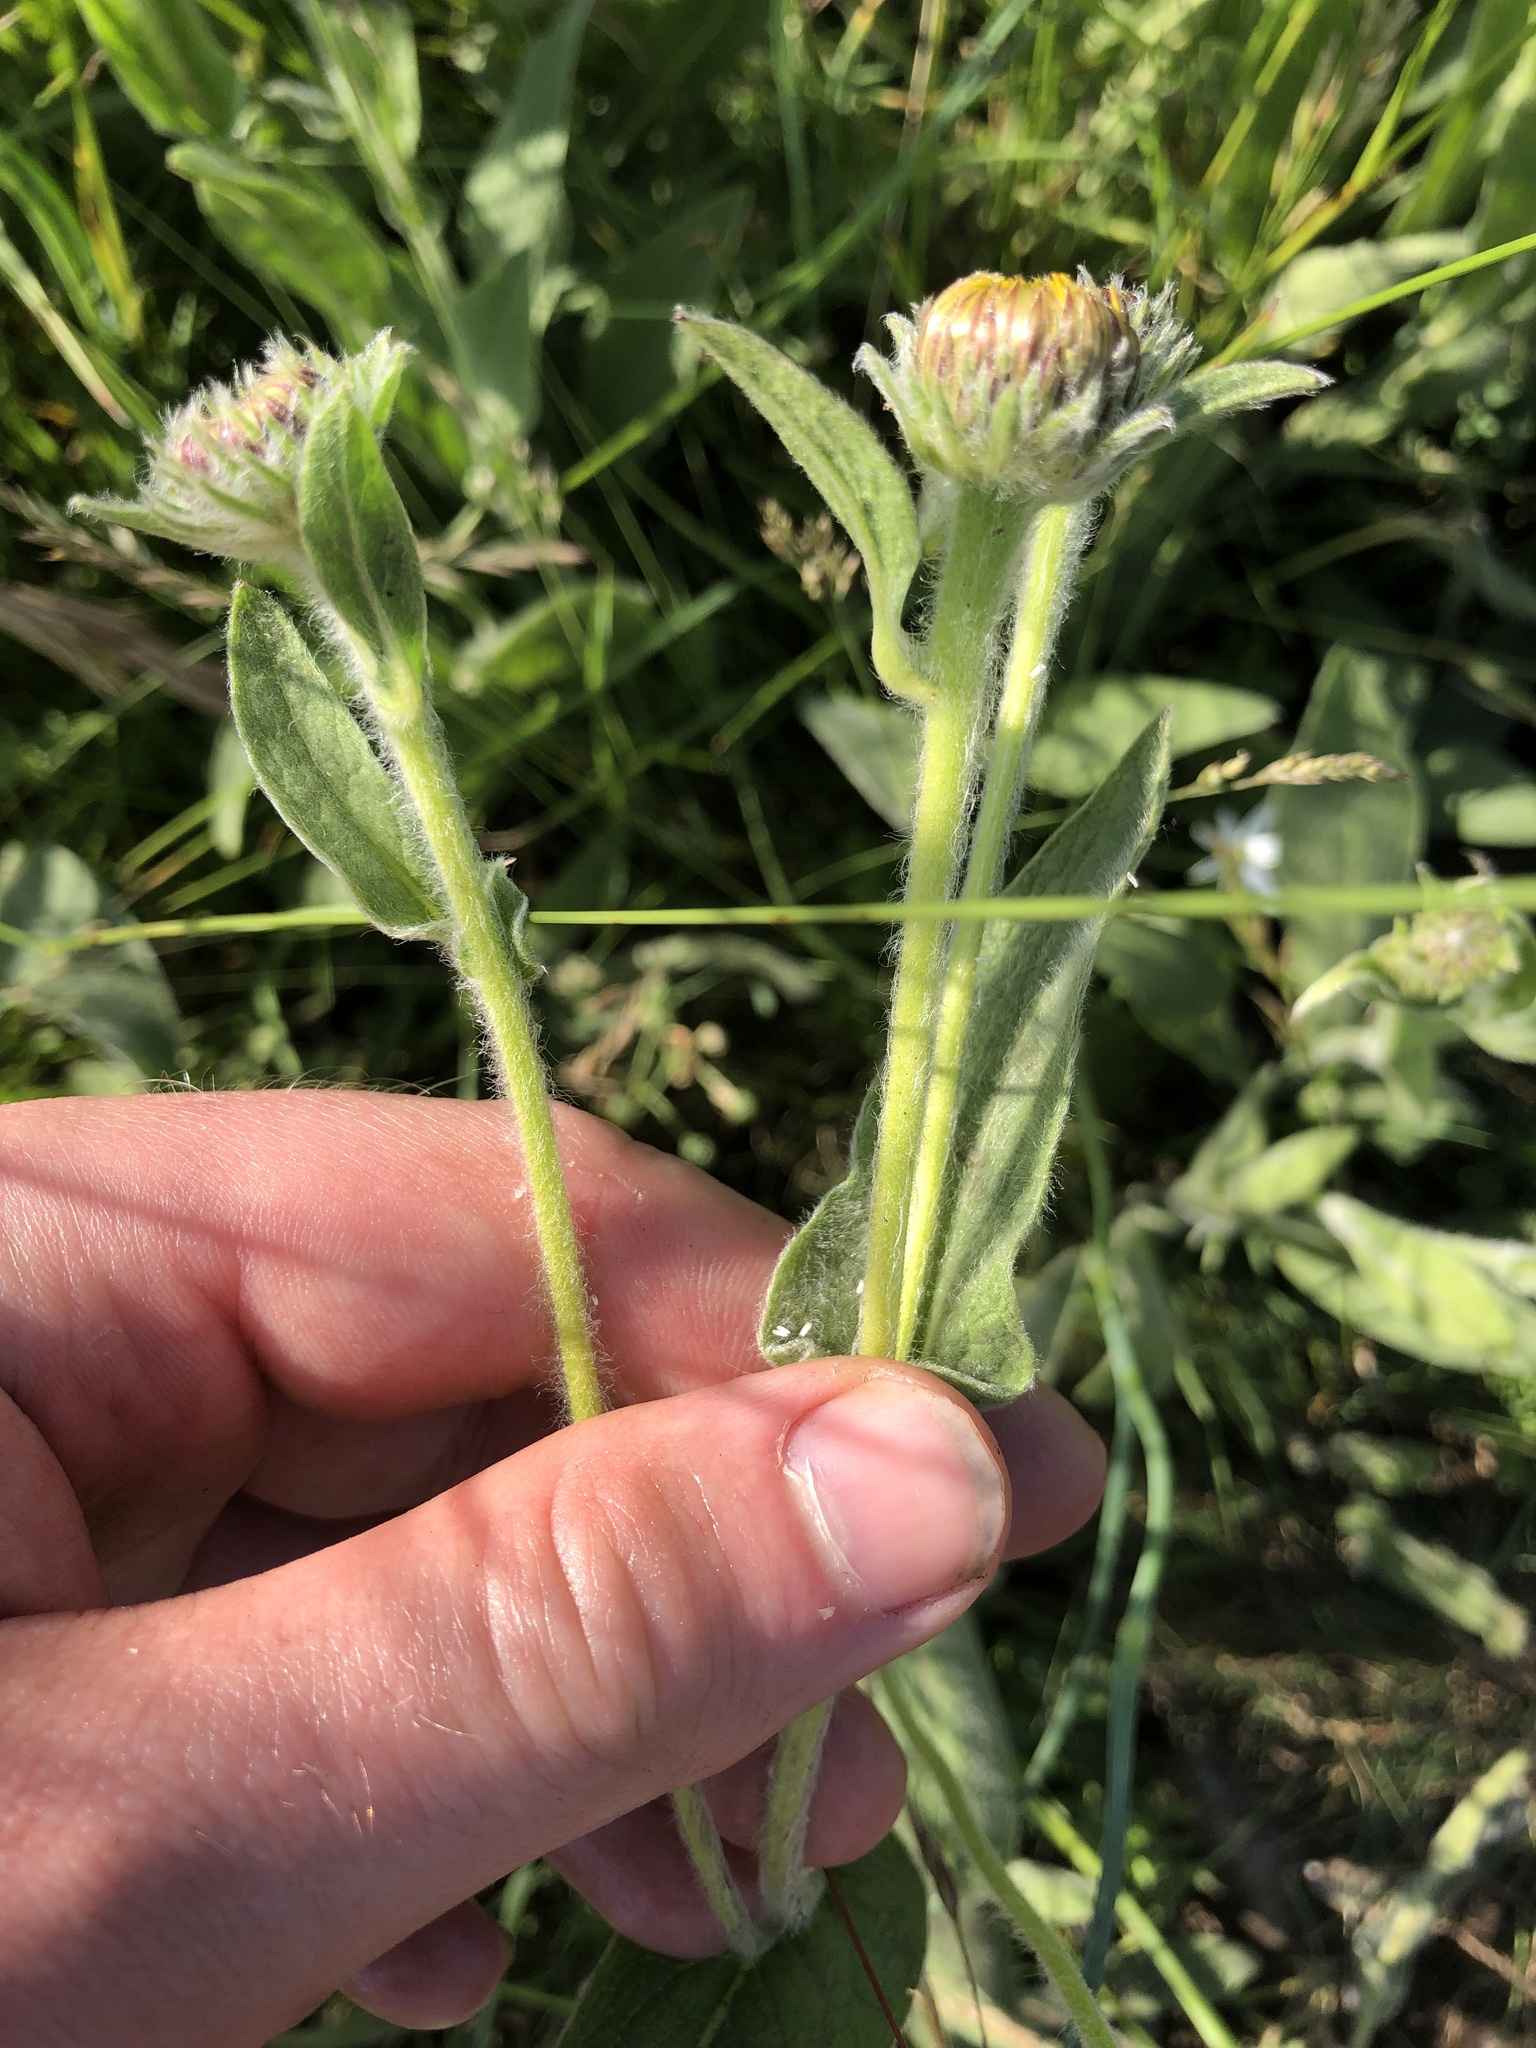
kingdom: Plantae
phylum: Tracheophyta
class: Magnoliopsida
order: Asterales
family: Asteraceae
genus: Pentanema
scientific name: Pentanema oculus-christi
